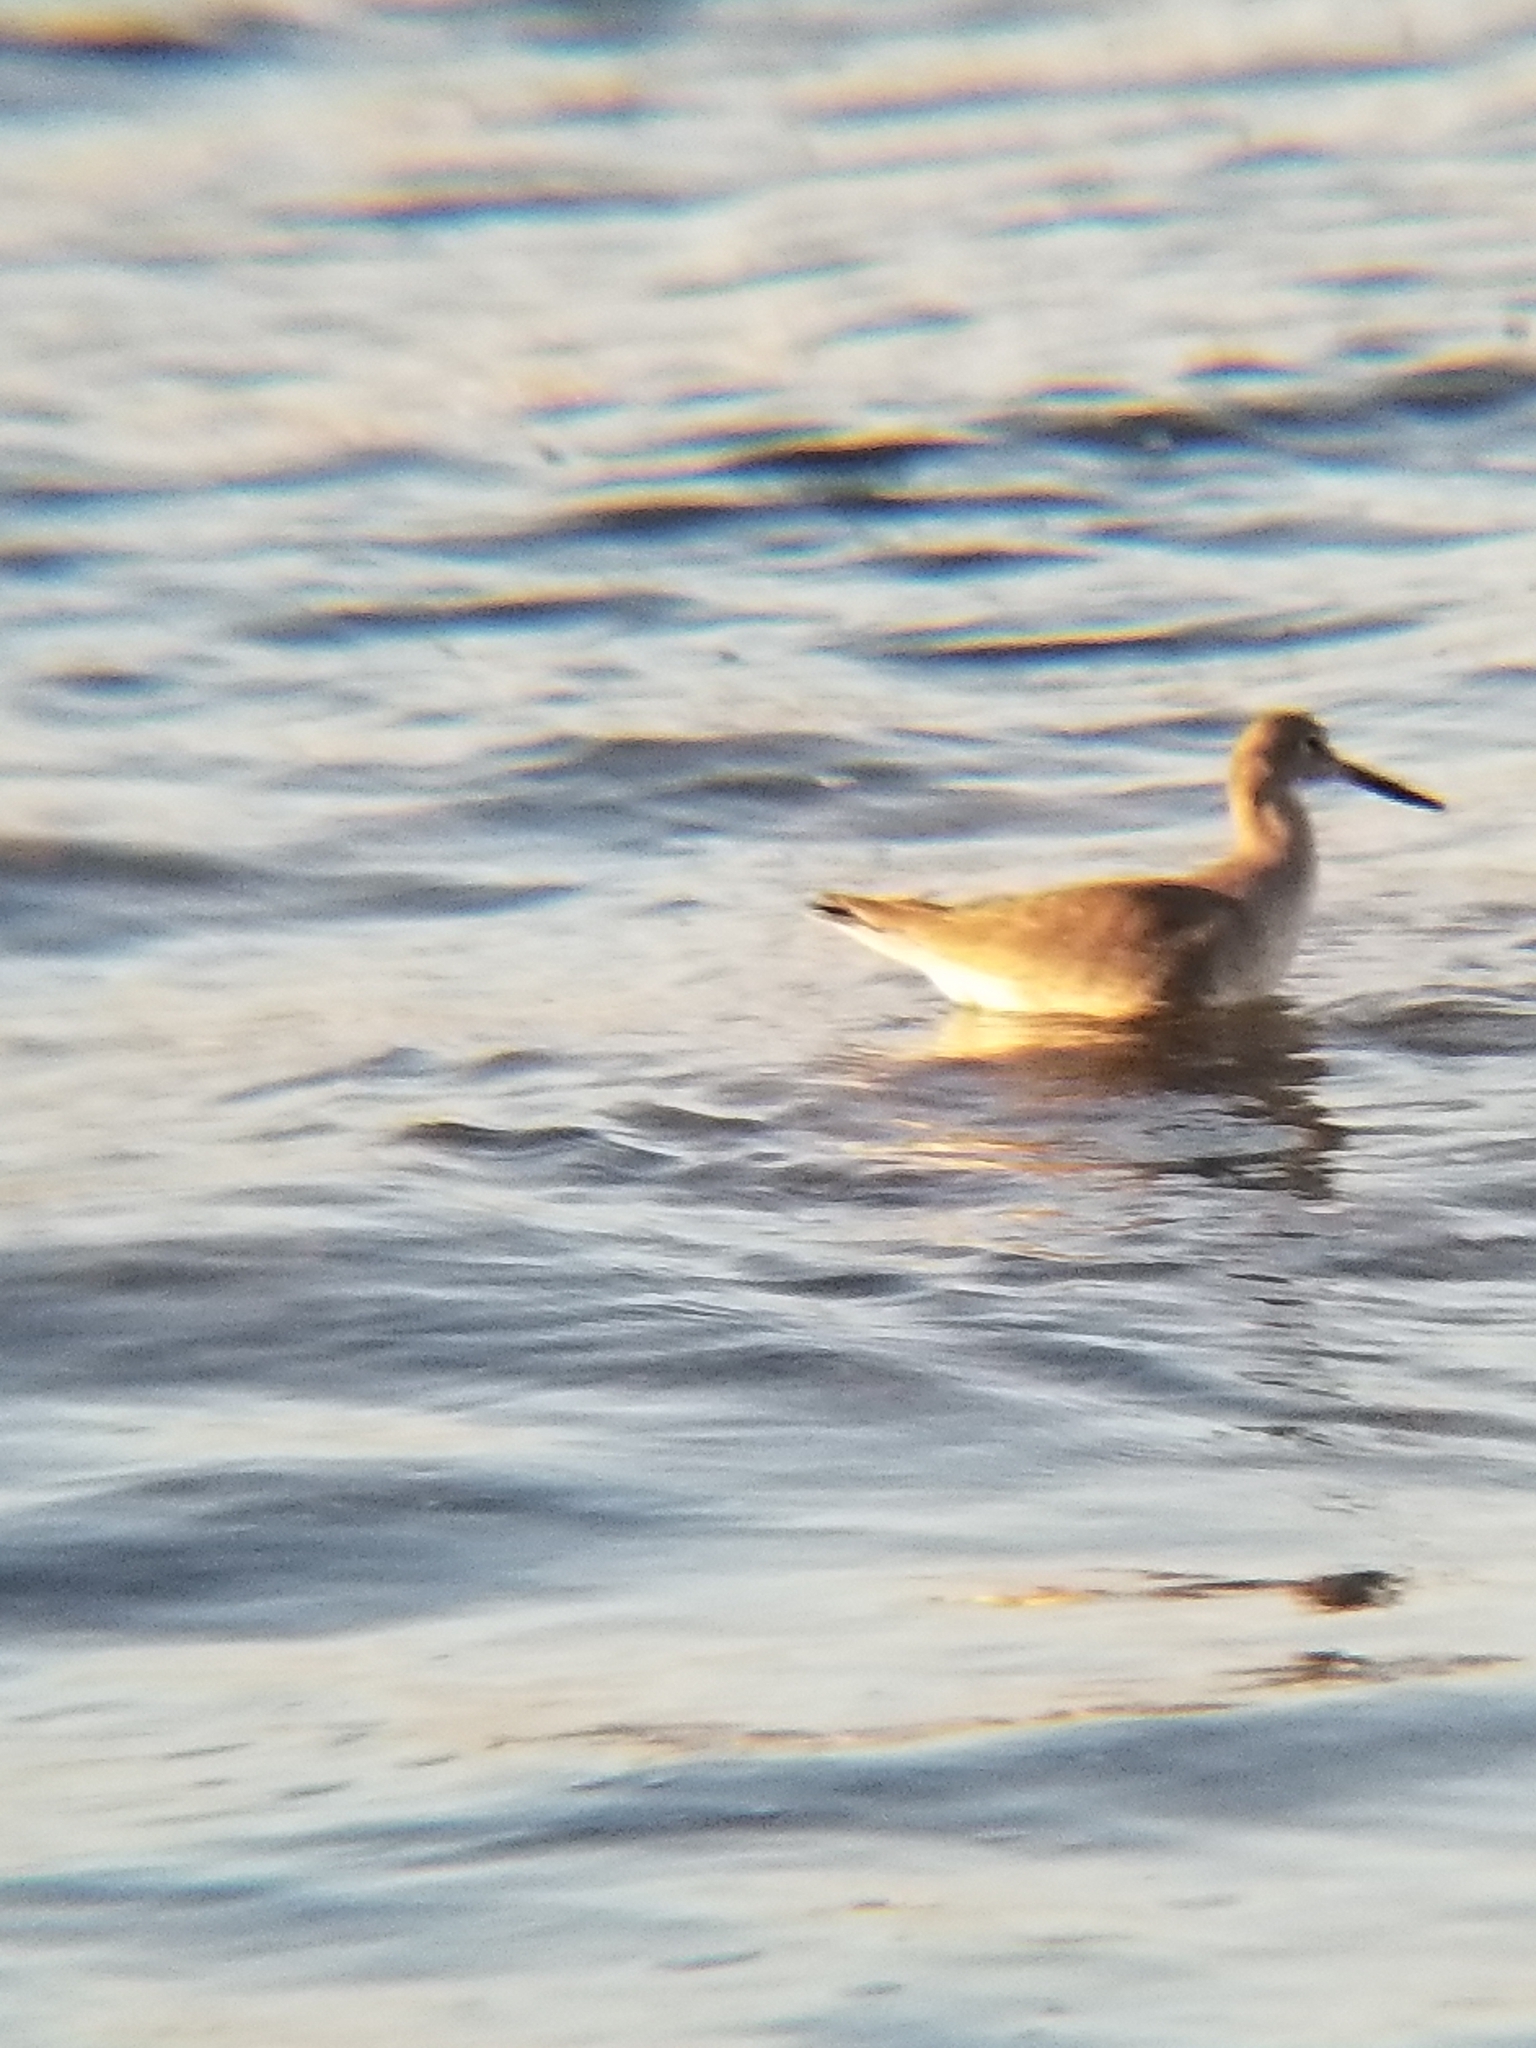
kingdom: Animalia
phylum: Chordata
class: Aves
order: Charadriiformes
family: Scolopacidae
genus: Tringa
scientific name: Tringa semipalmata
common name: Willet
